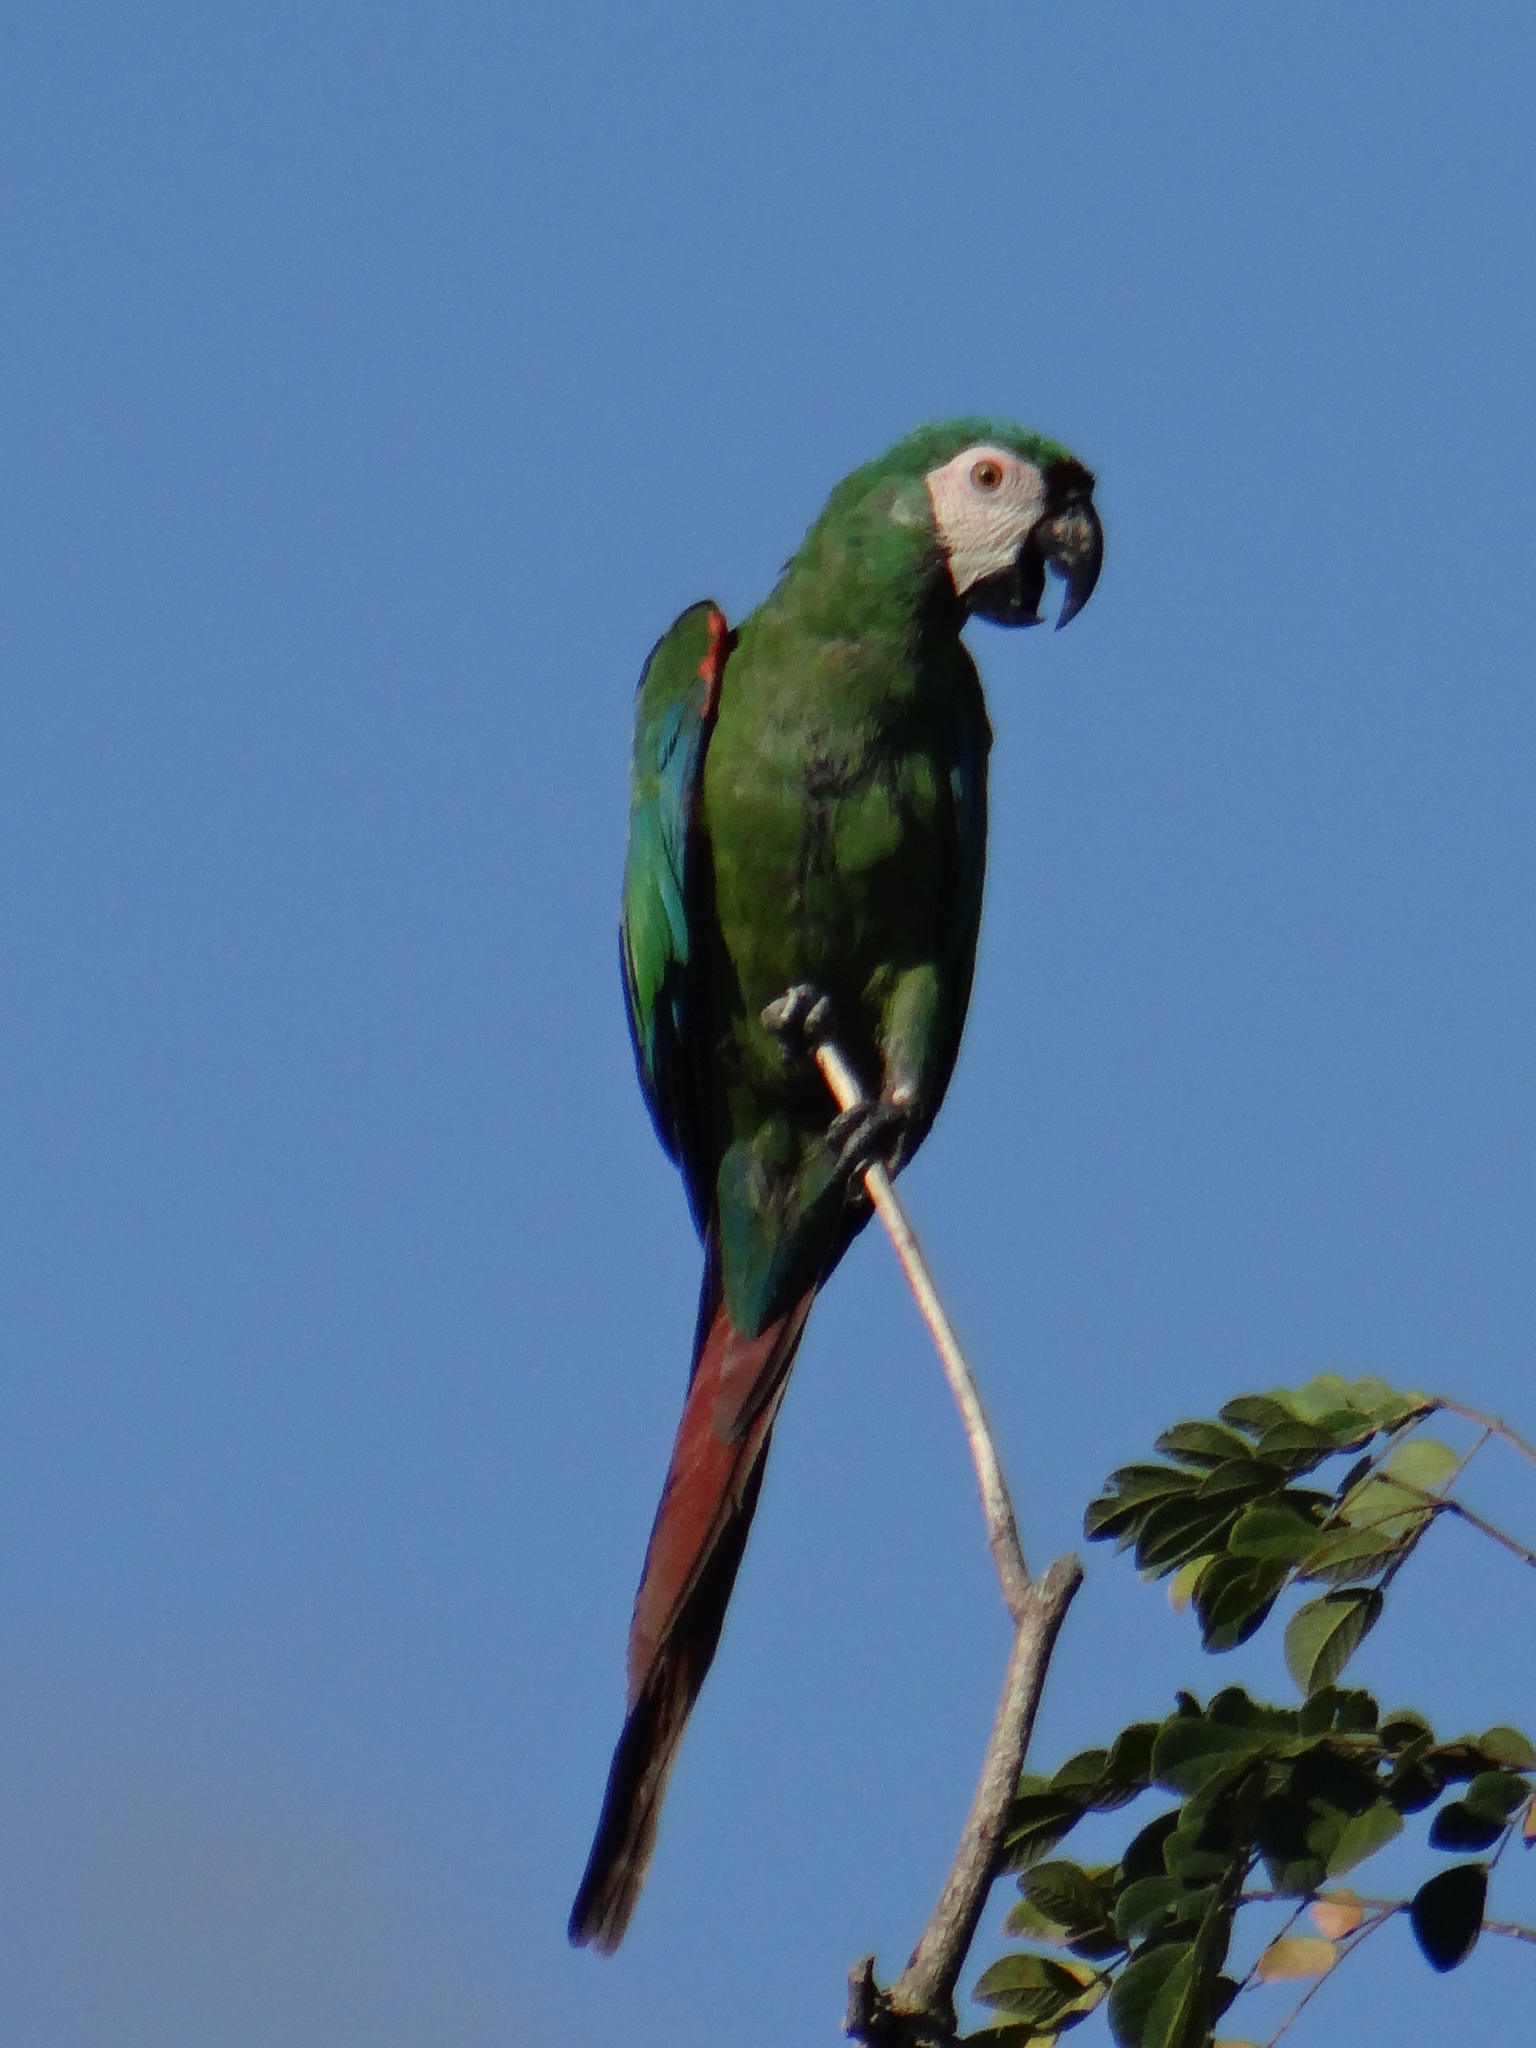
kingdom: Animalia
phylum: Chordata
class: Aves
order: Psittaciformes
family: Psittacidae
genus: Ara
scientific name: Ara severus
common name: Chestnut-fronted macaw
